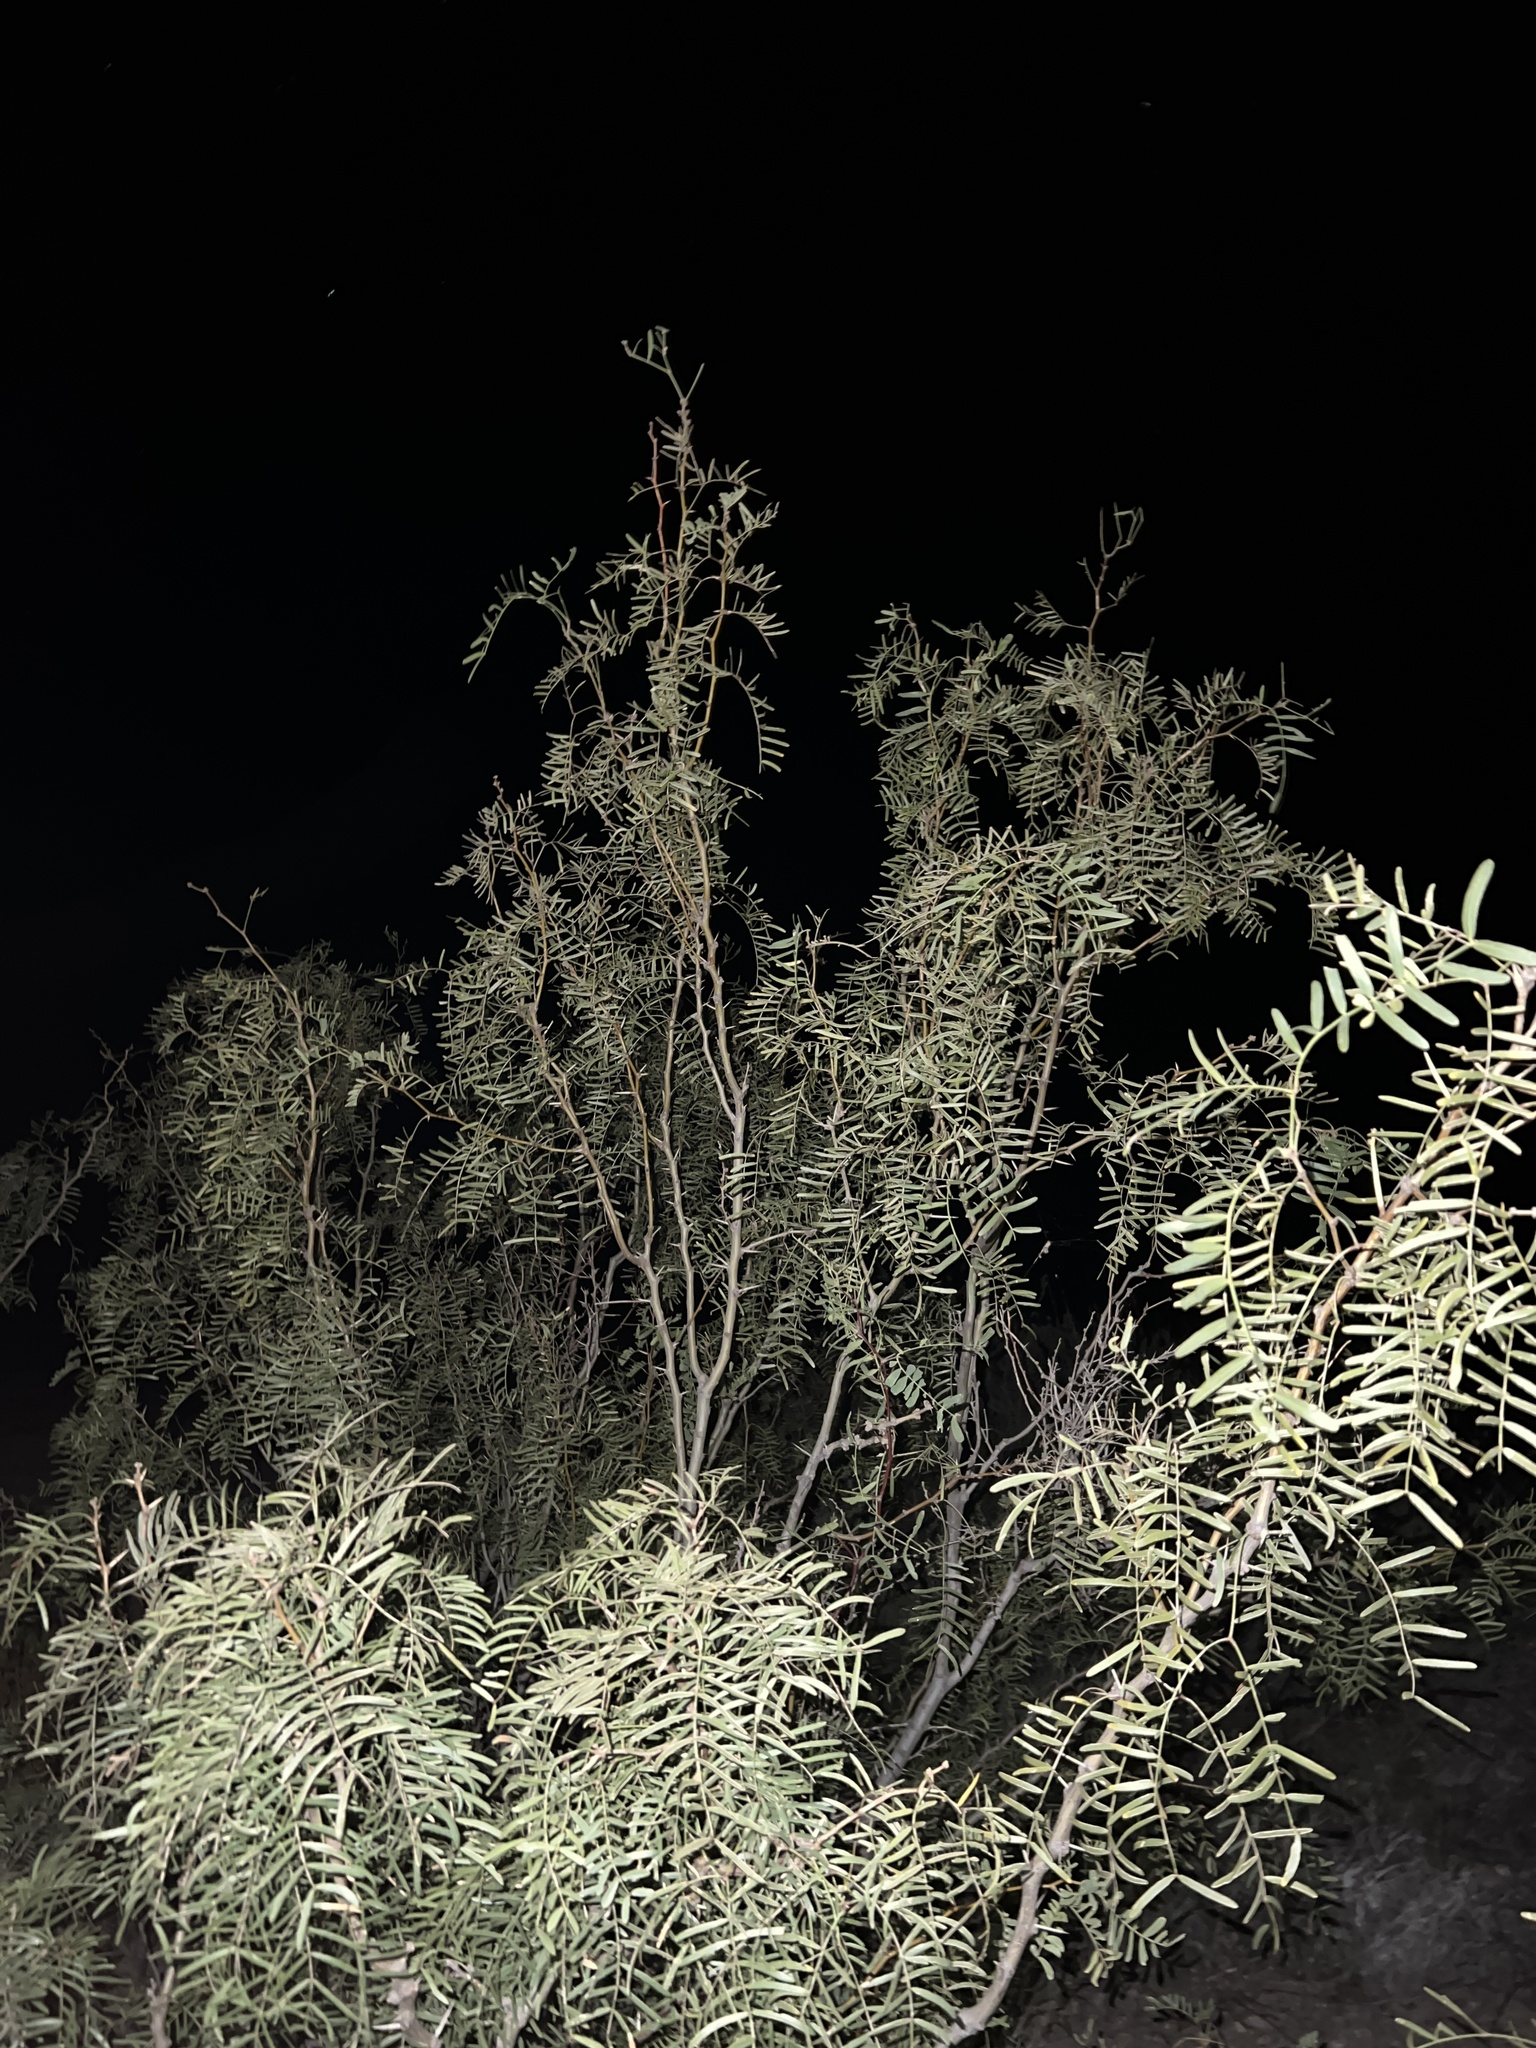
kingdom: Plantae
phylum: Tracheophyta
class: Magnoliopsida
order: Fabales
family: Fabaceae
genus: Prosopis
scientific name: Prosopis glandulosa
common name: Honey mesquite
